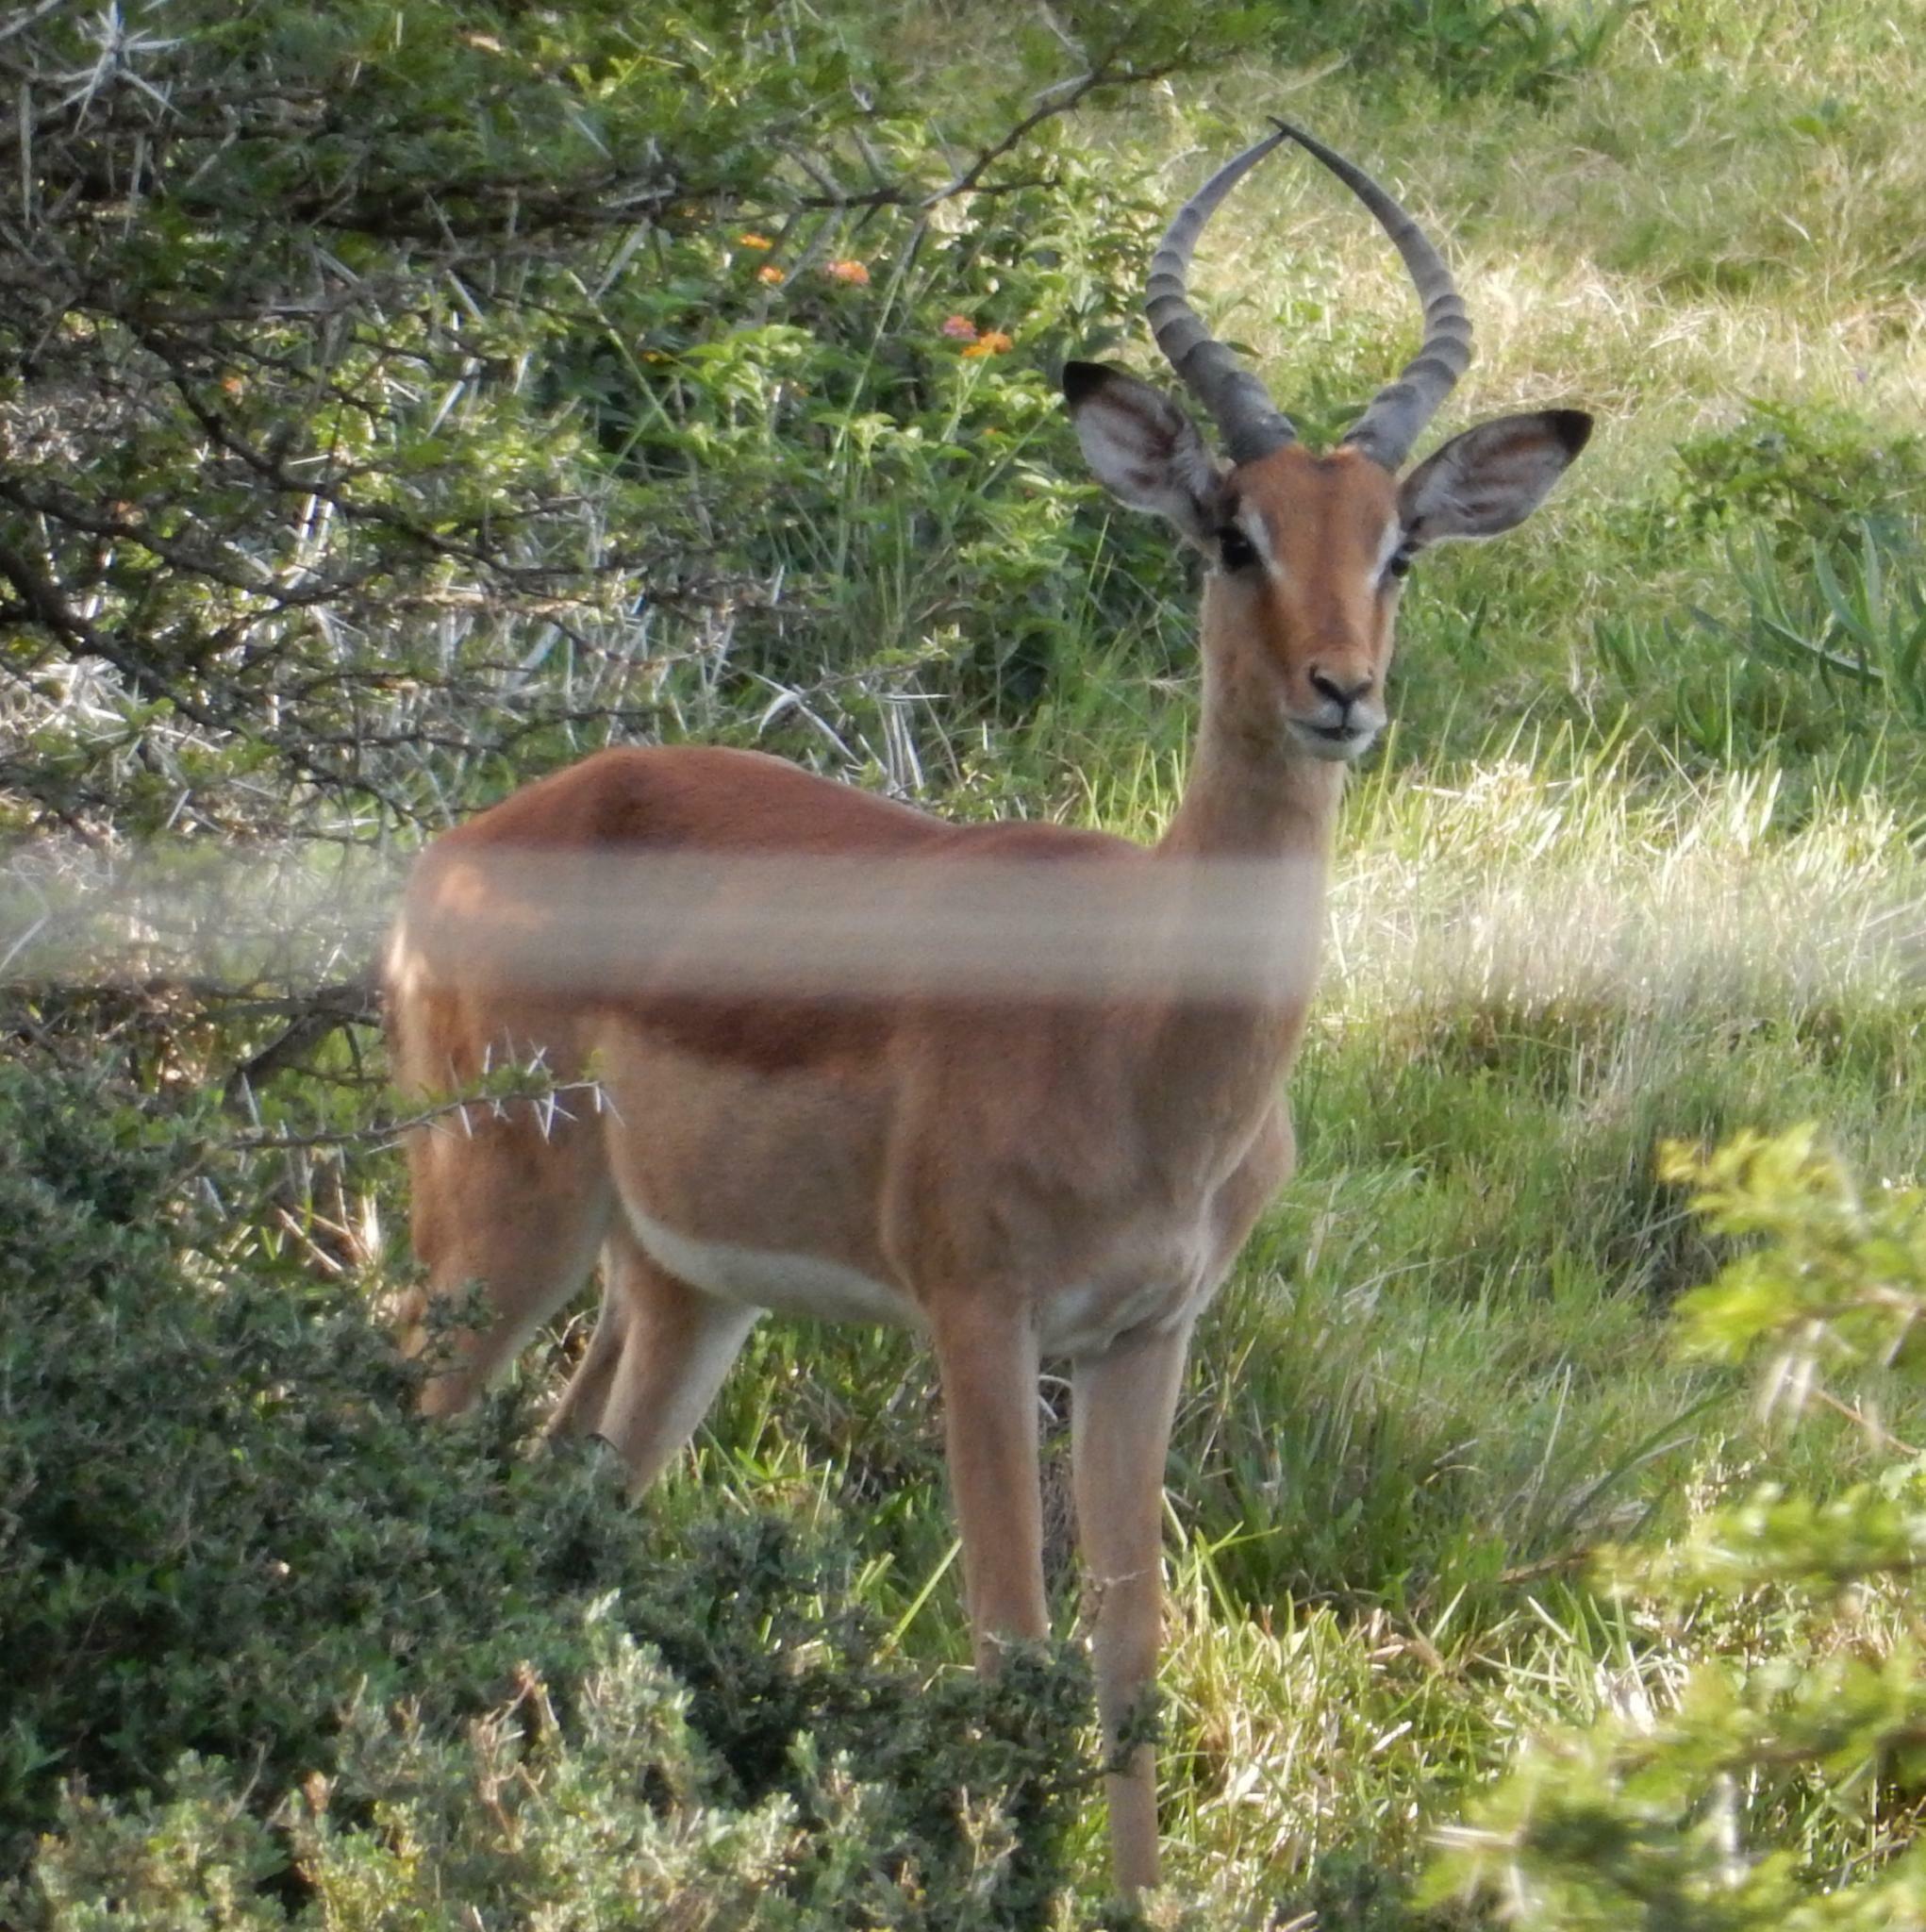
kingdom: Animalia
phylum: Chordata
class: Mammalia
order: Artiodactyla
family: Bovidae
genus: Aepyceros
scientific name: Aepyceros melampus
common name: Impala
